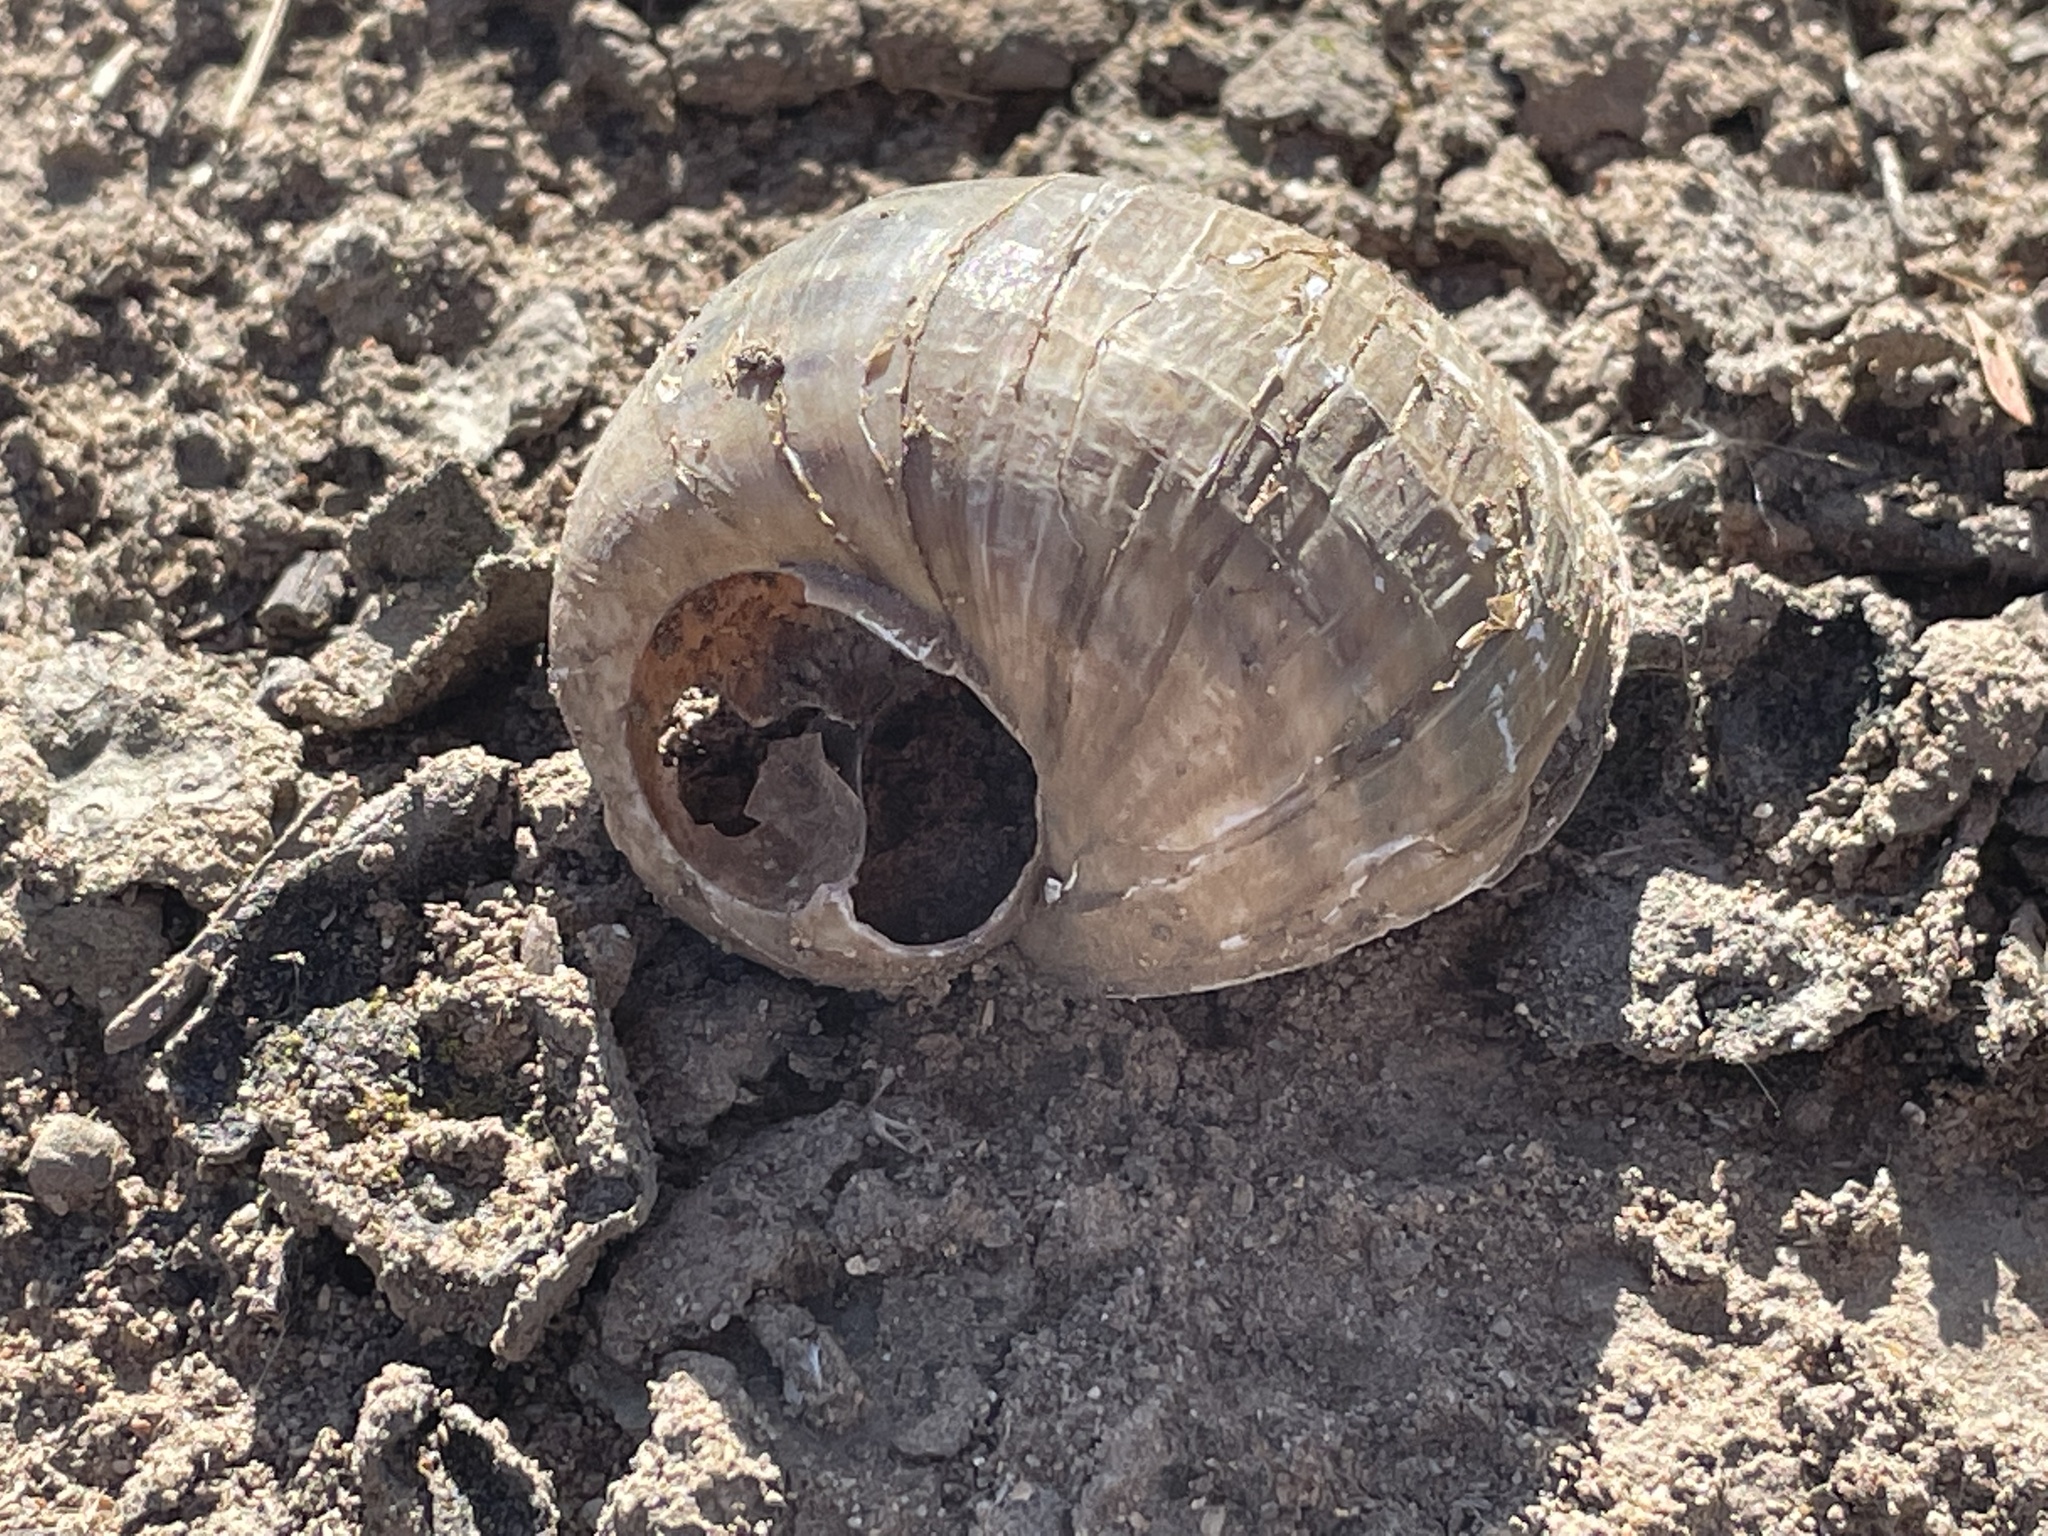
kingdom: Animalia
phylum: Mollusca
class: Gastropoda
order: Architaenioglossa
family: Ampullariidae
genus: Pomacea
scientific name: Pomacea canaliculata
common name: Channeled applesnail
